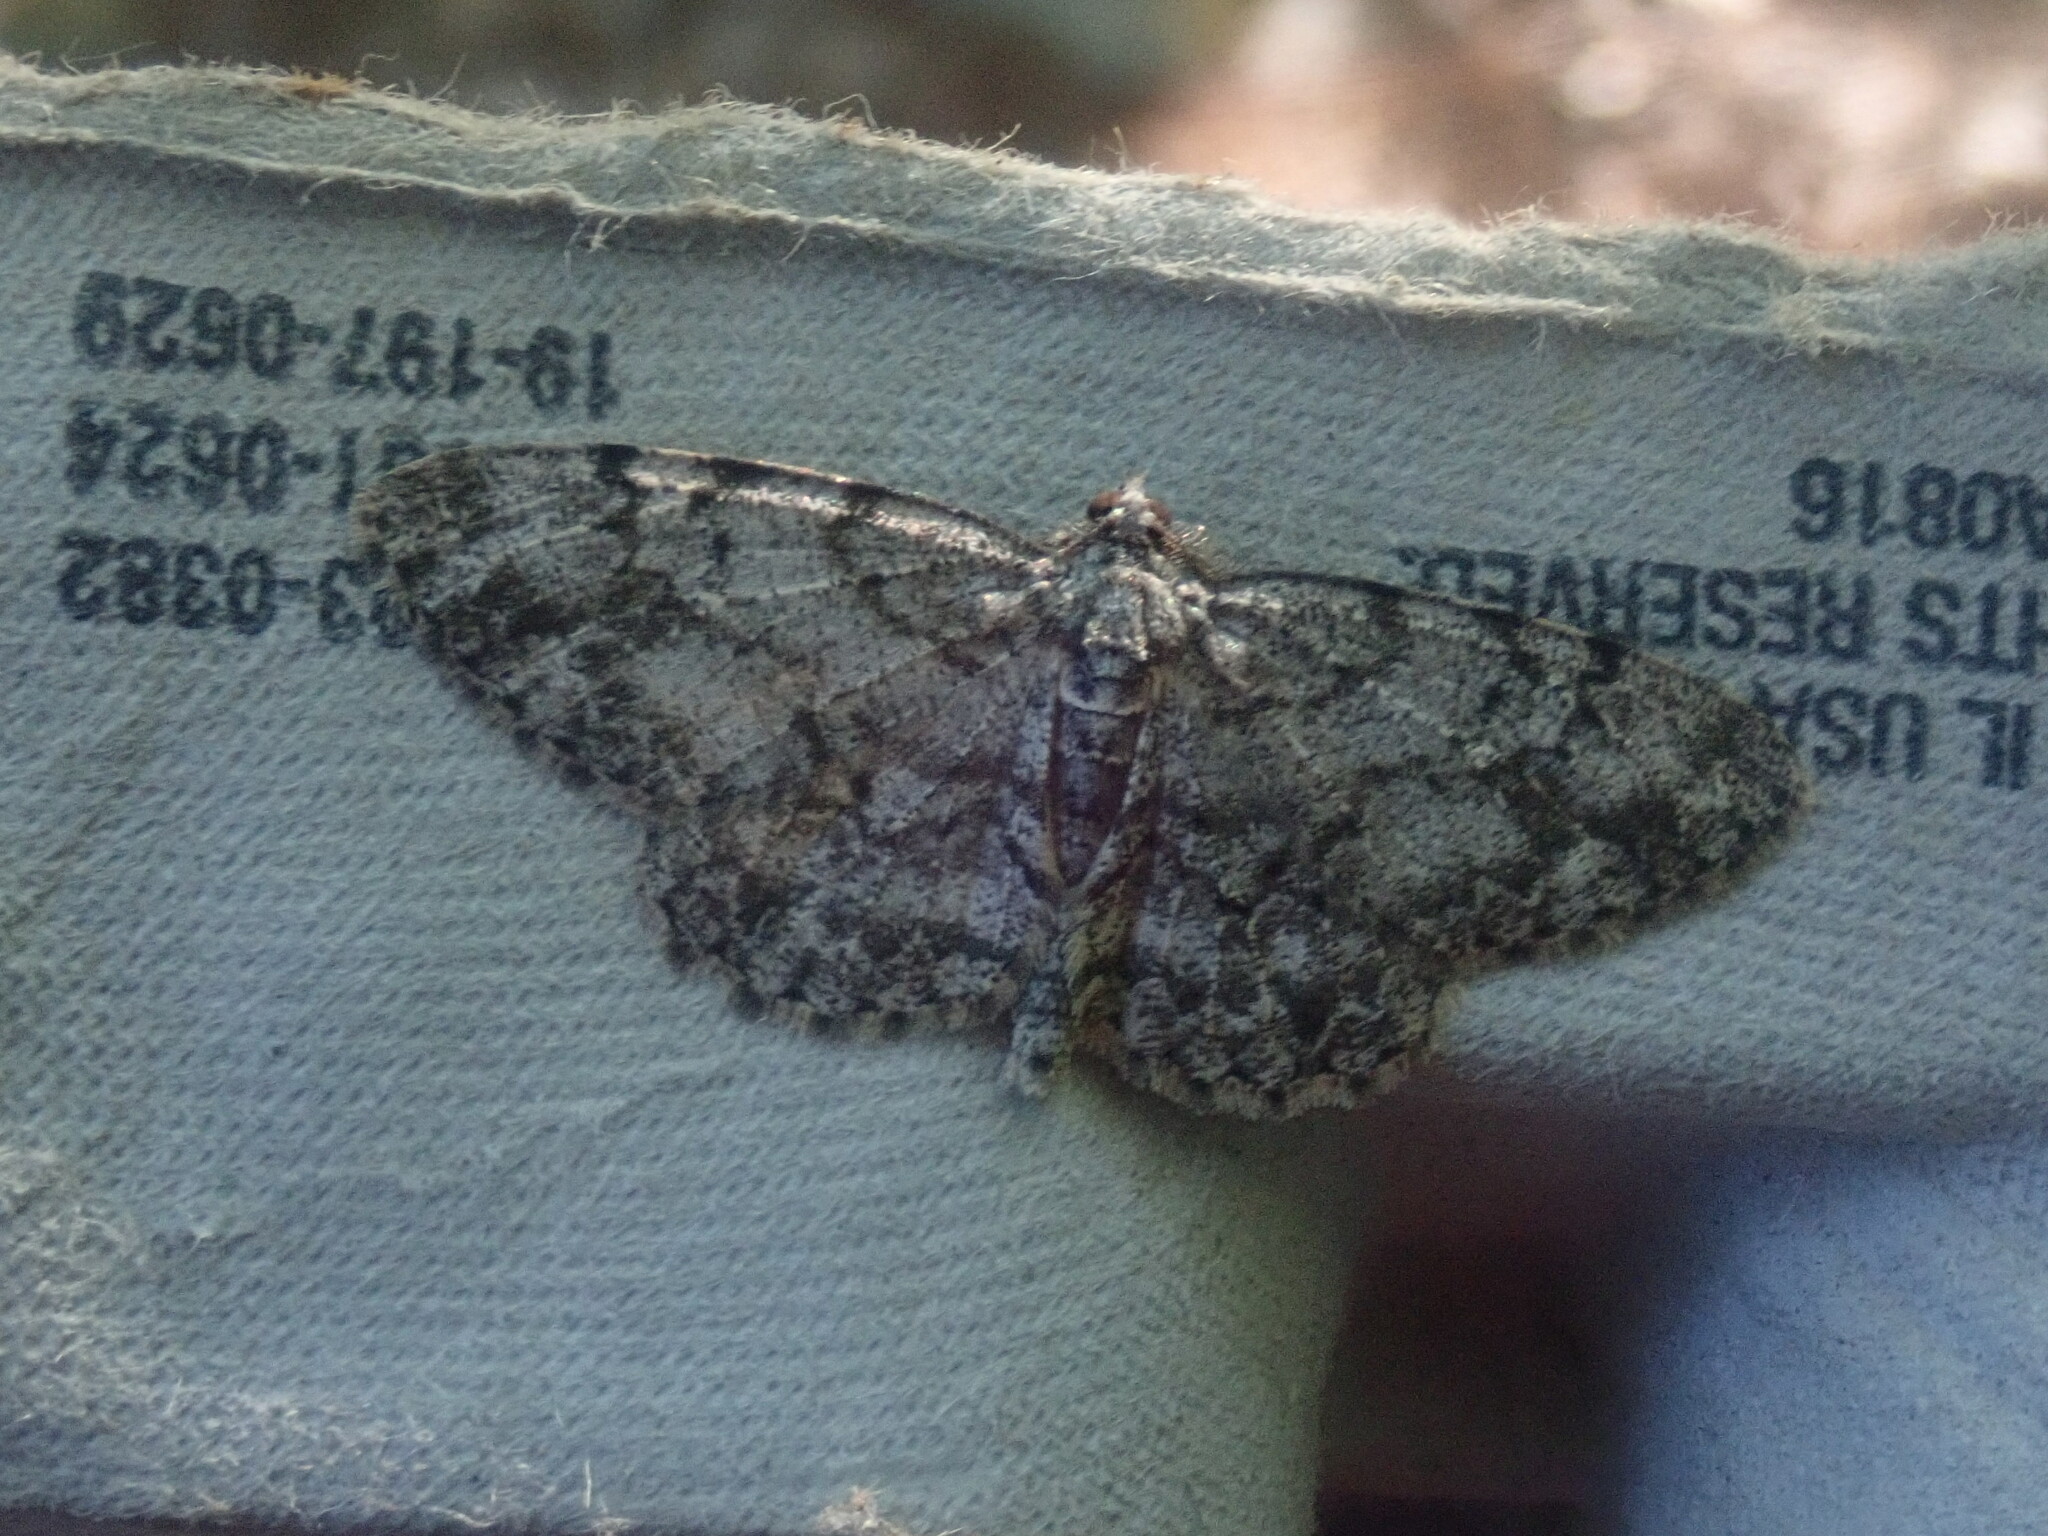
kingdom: Animalia
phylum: Arthropoda
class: Insecta
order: Lepidoptera
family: Geometridae
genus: Protoboarmia
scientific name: Protoboarmia porcelaria
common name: Porcelain gray
